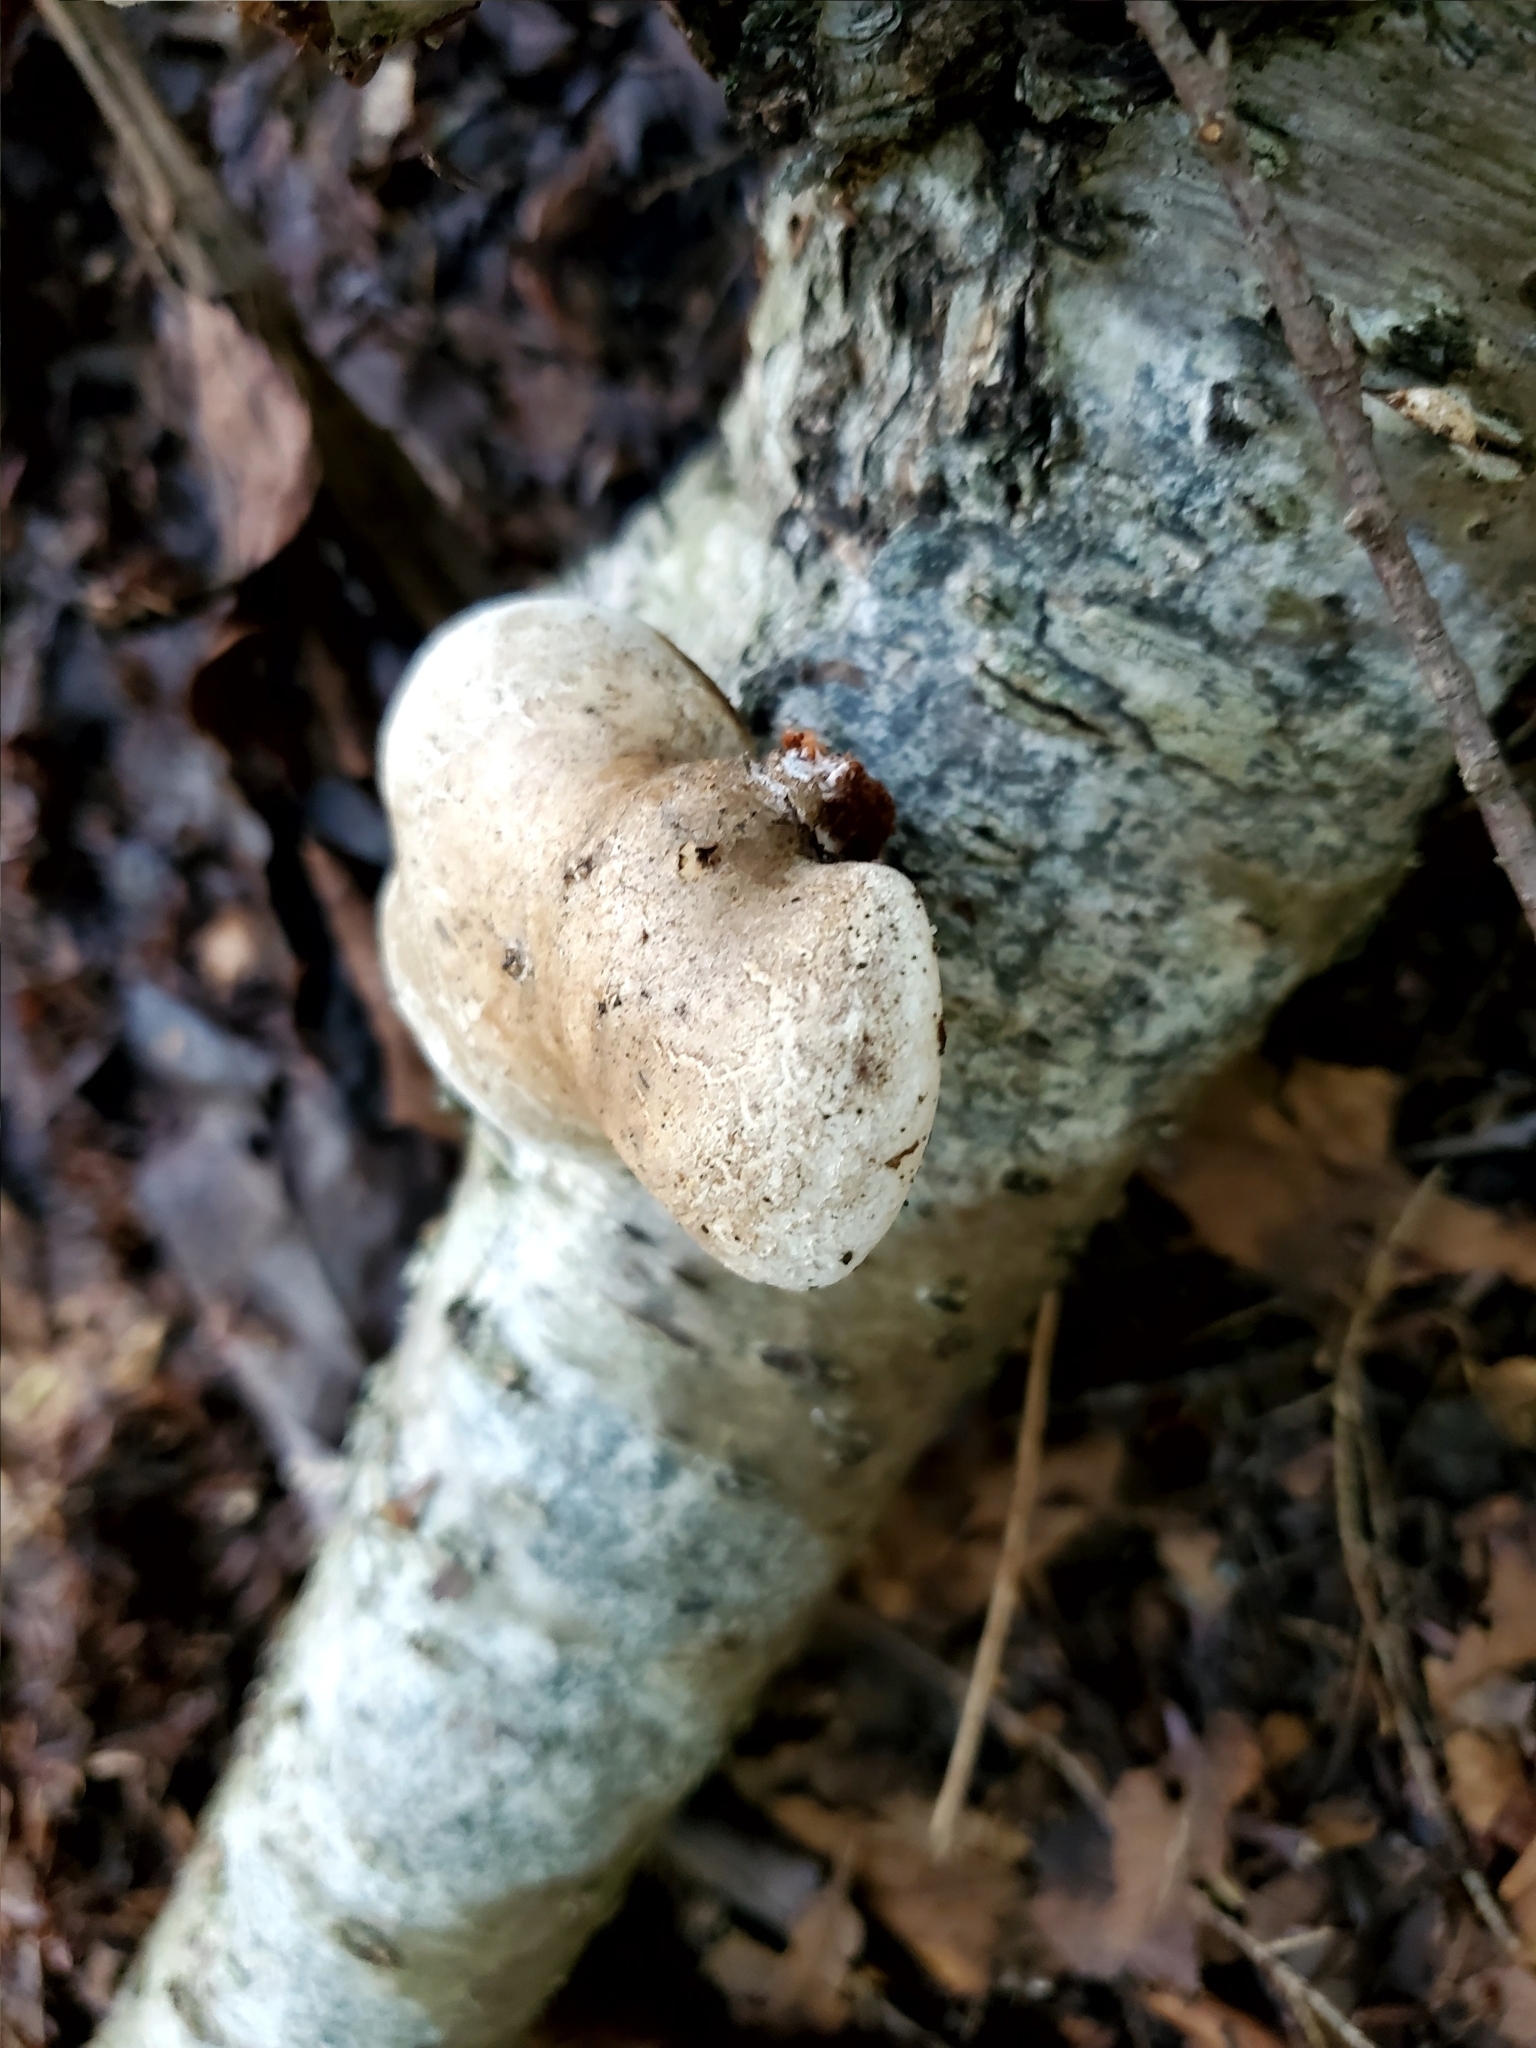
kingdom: Fungi
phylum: Basidiomycota
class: Agaricomycetes
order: Polyporales
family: Fomitopsidaceae
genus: Fomitopsis
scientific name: Fomitopsis betulina
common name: Birch polypore
